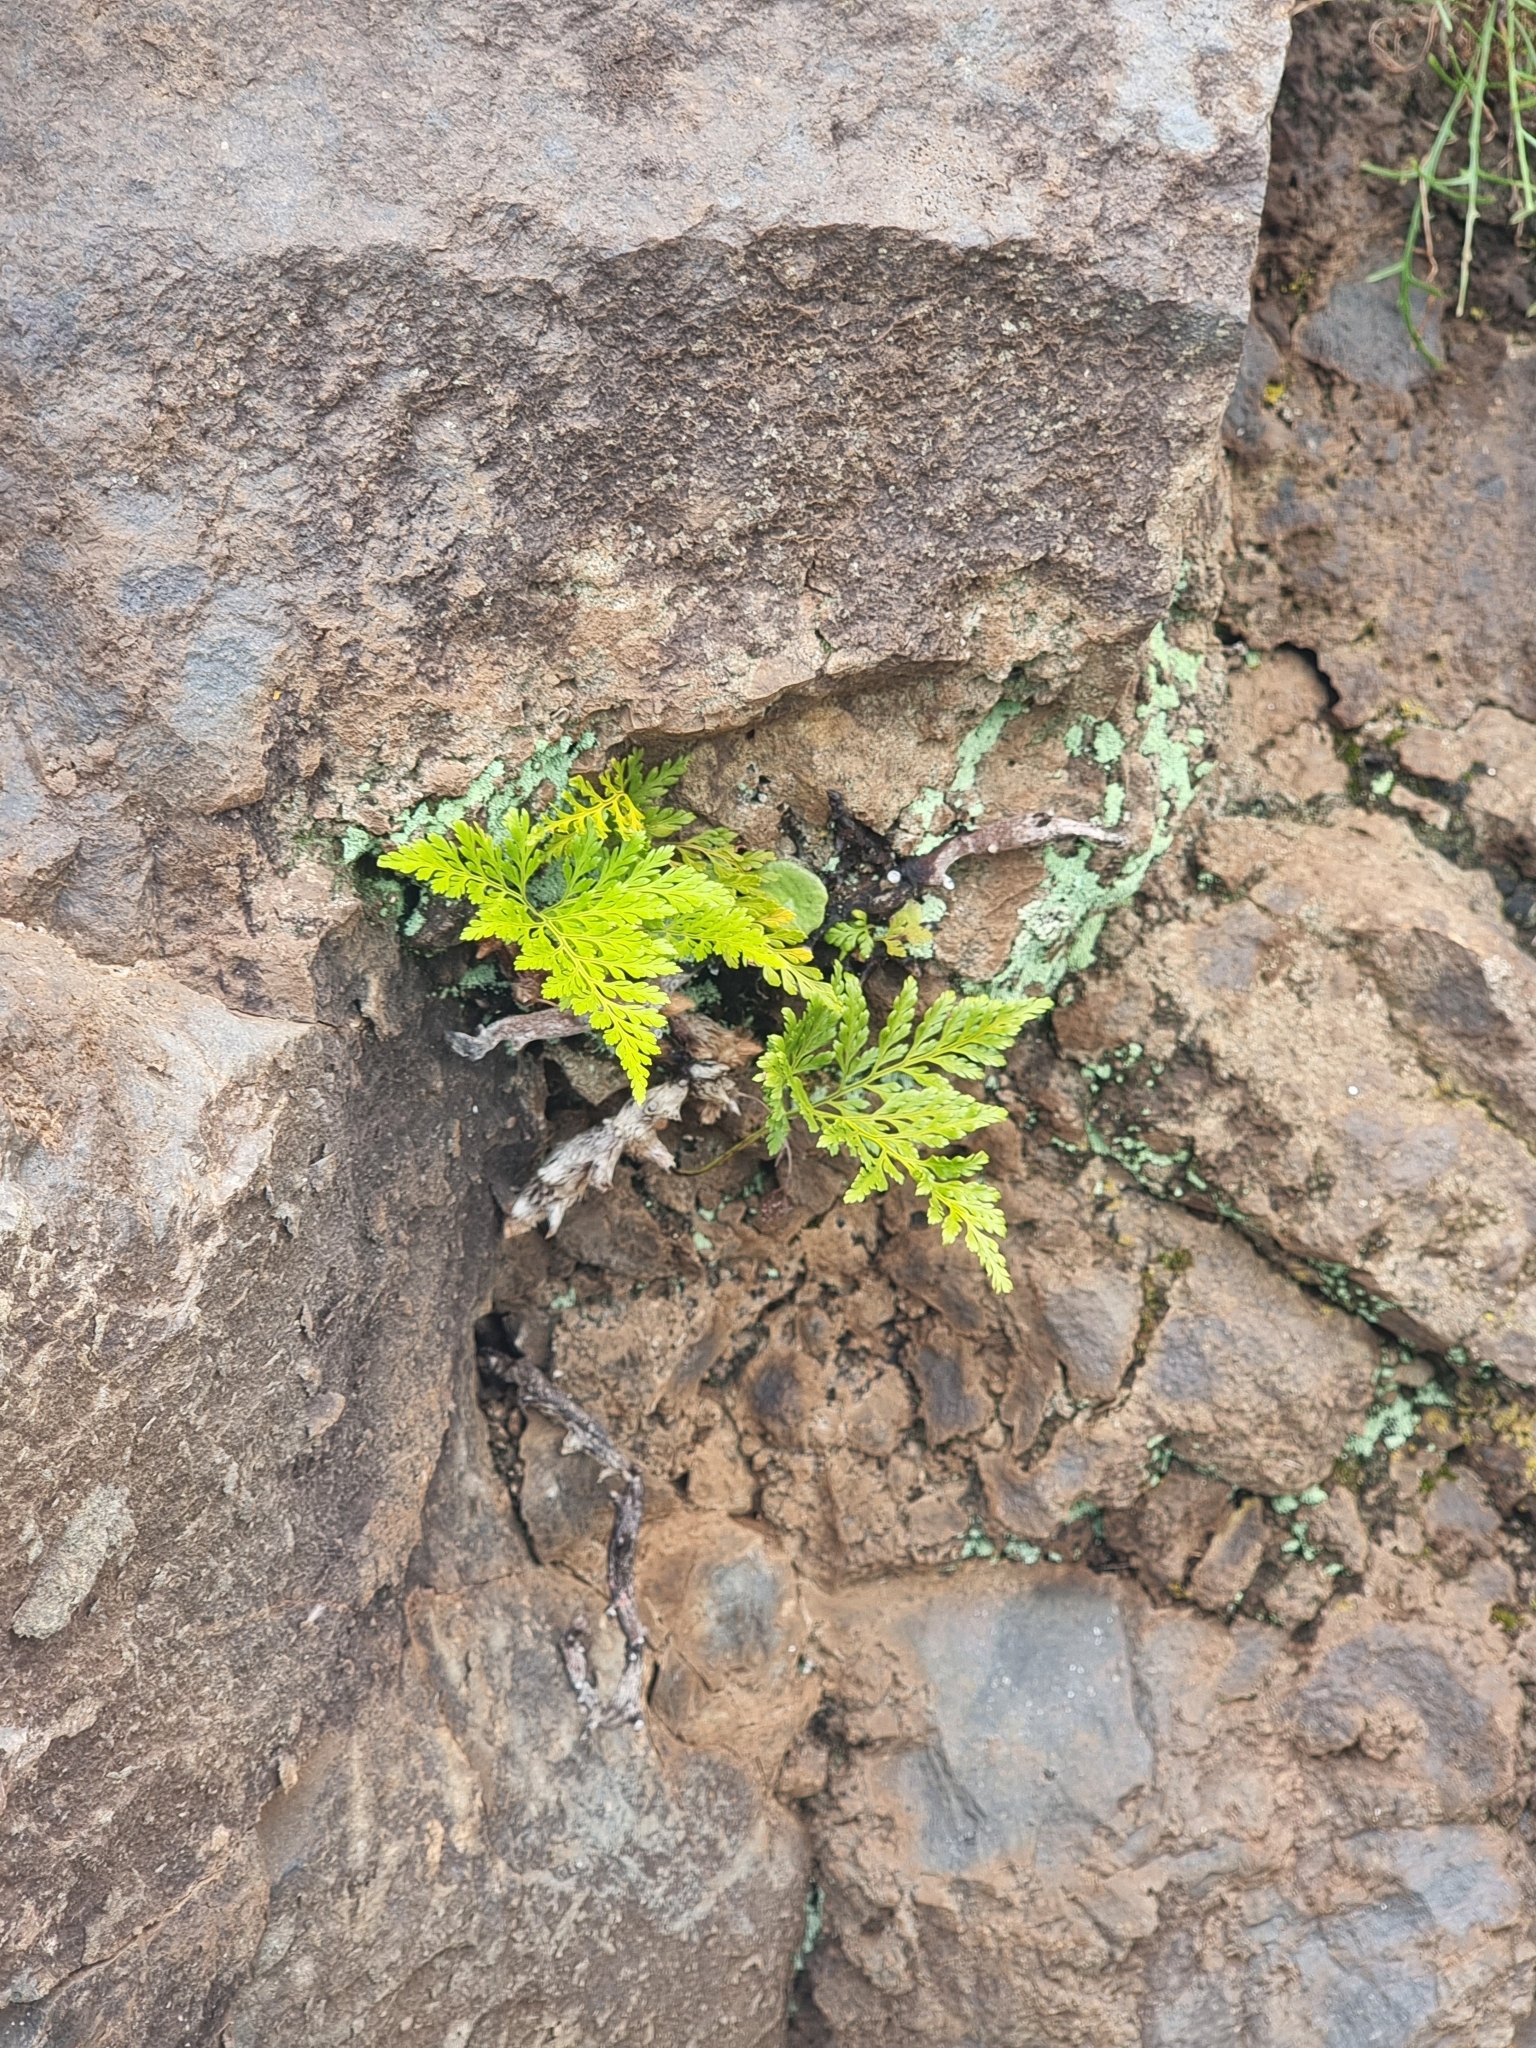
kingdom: Plantae
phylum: Tracheophyta
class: Polypodiopsida
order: Polypodiales
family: Davalliaceae
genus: Davallia
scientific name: Davallia canariensis
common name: Hare's-foot fern
